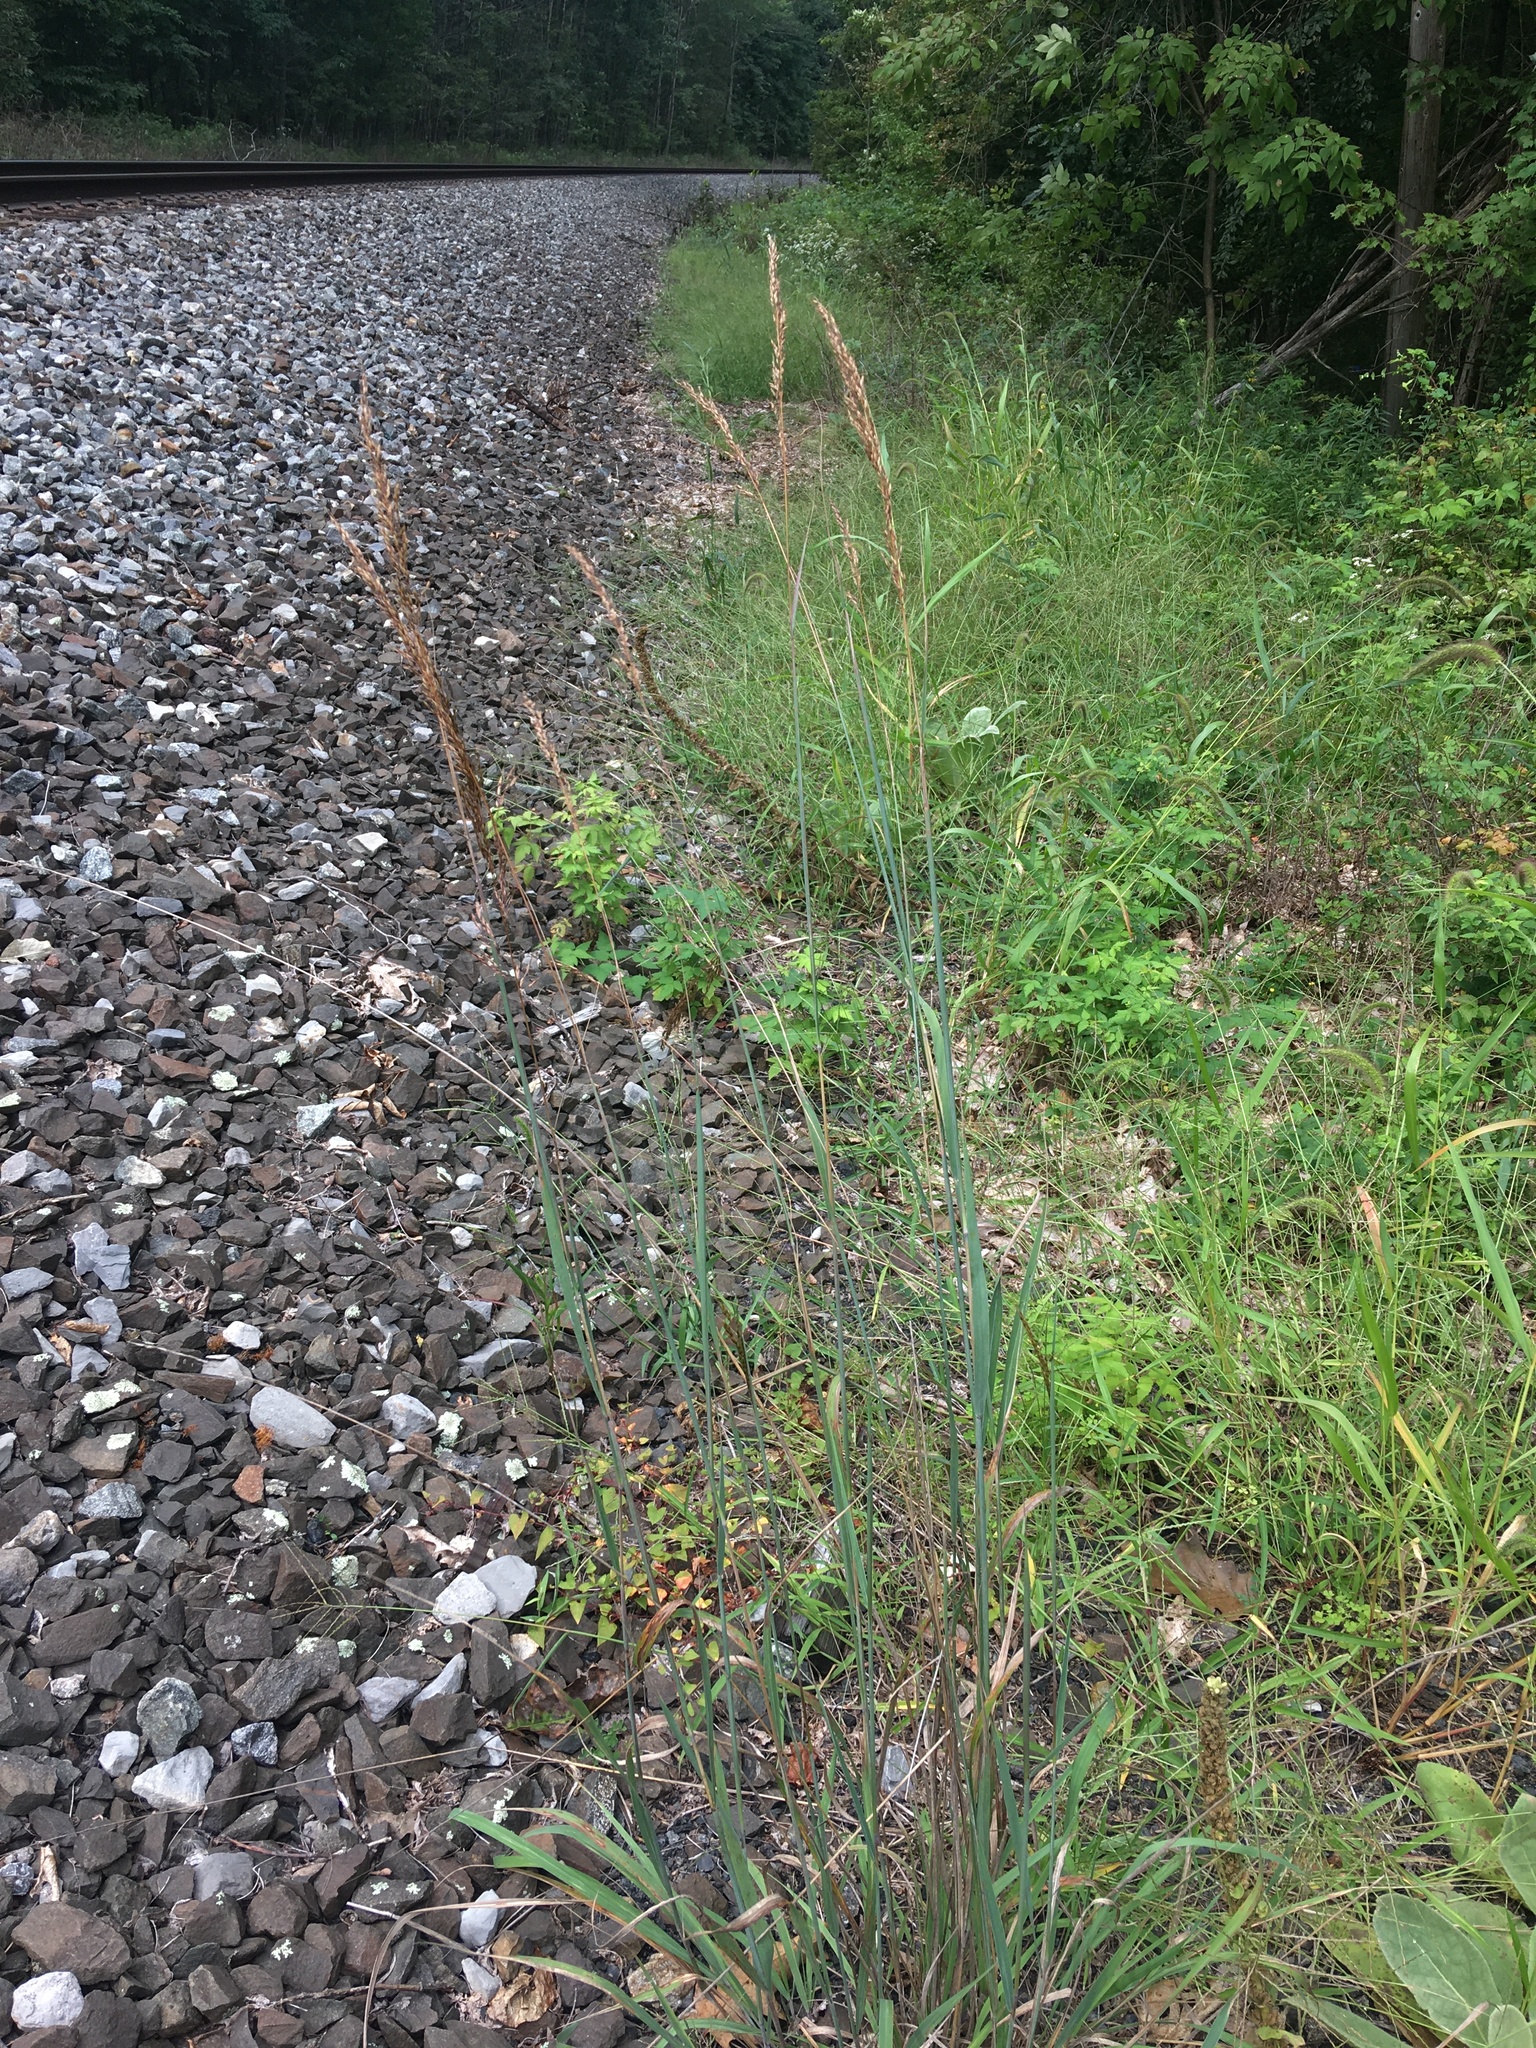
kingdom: Plantae
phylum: Tracheophyta
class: Liliopsida
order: Poales
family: Poaceae
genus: Sorghastrum
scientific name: Sorghastrum nutans
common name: Indian grass
